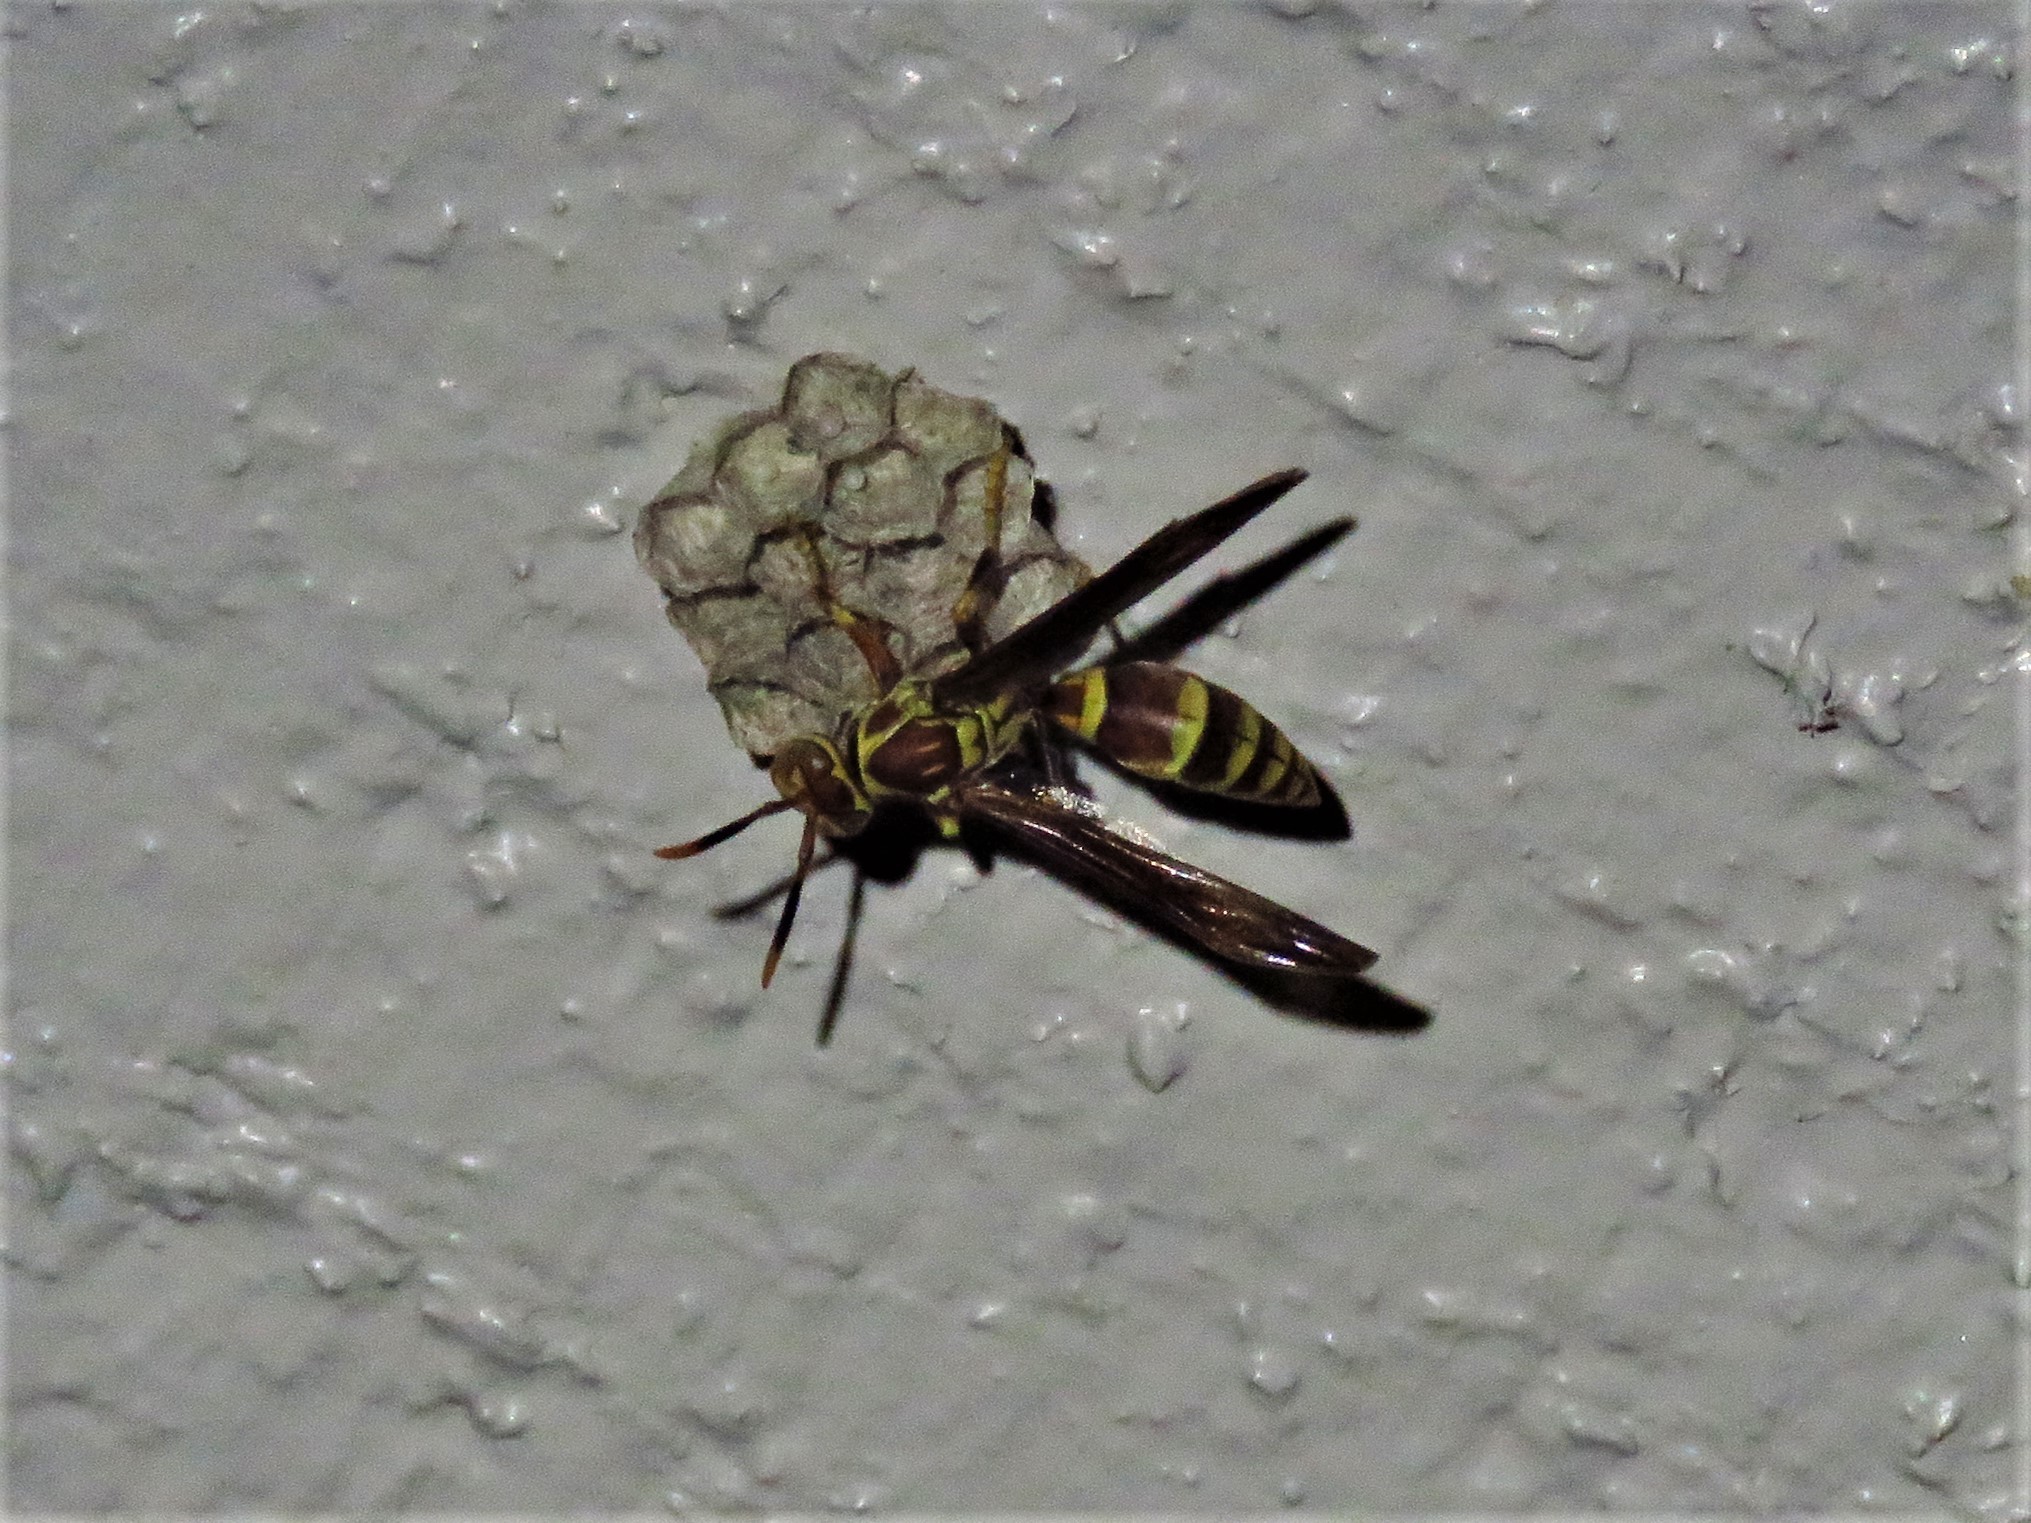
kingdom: Animalia
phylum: Arthropoda
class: Insecta
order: Hymenoptera
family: Eumenidae
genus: Polistes
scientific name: Polistes exclamans
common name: Paper wasp
